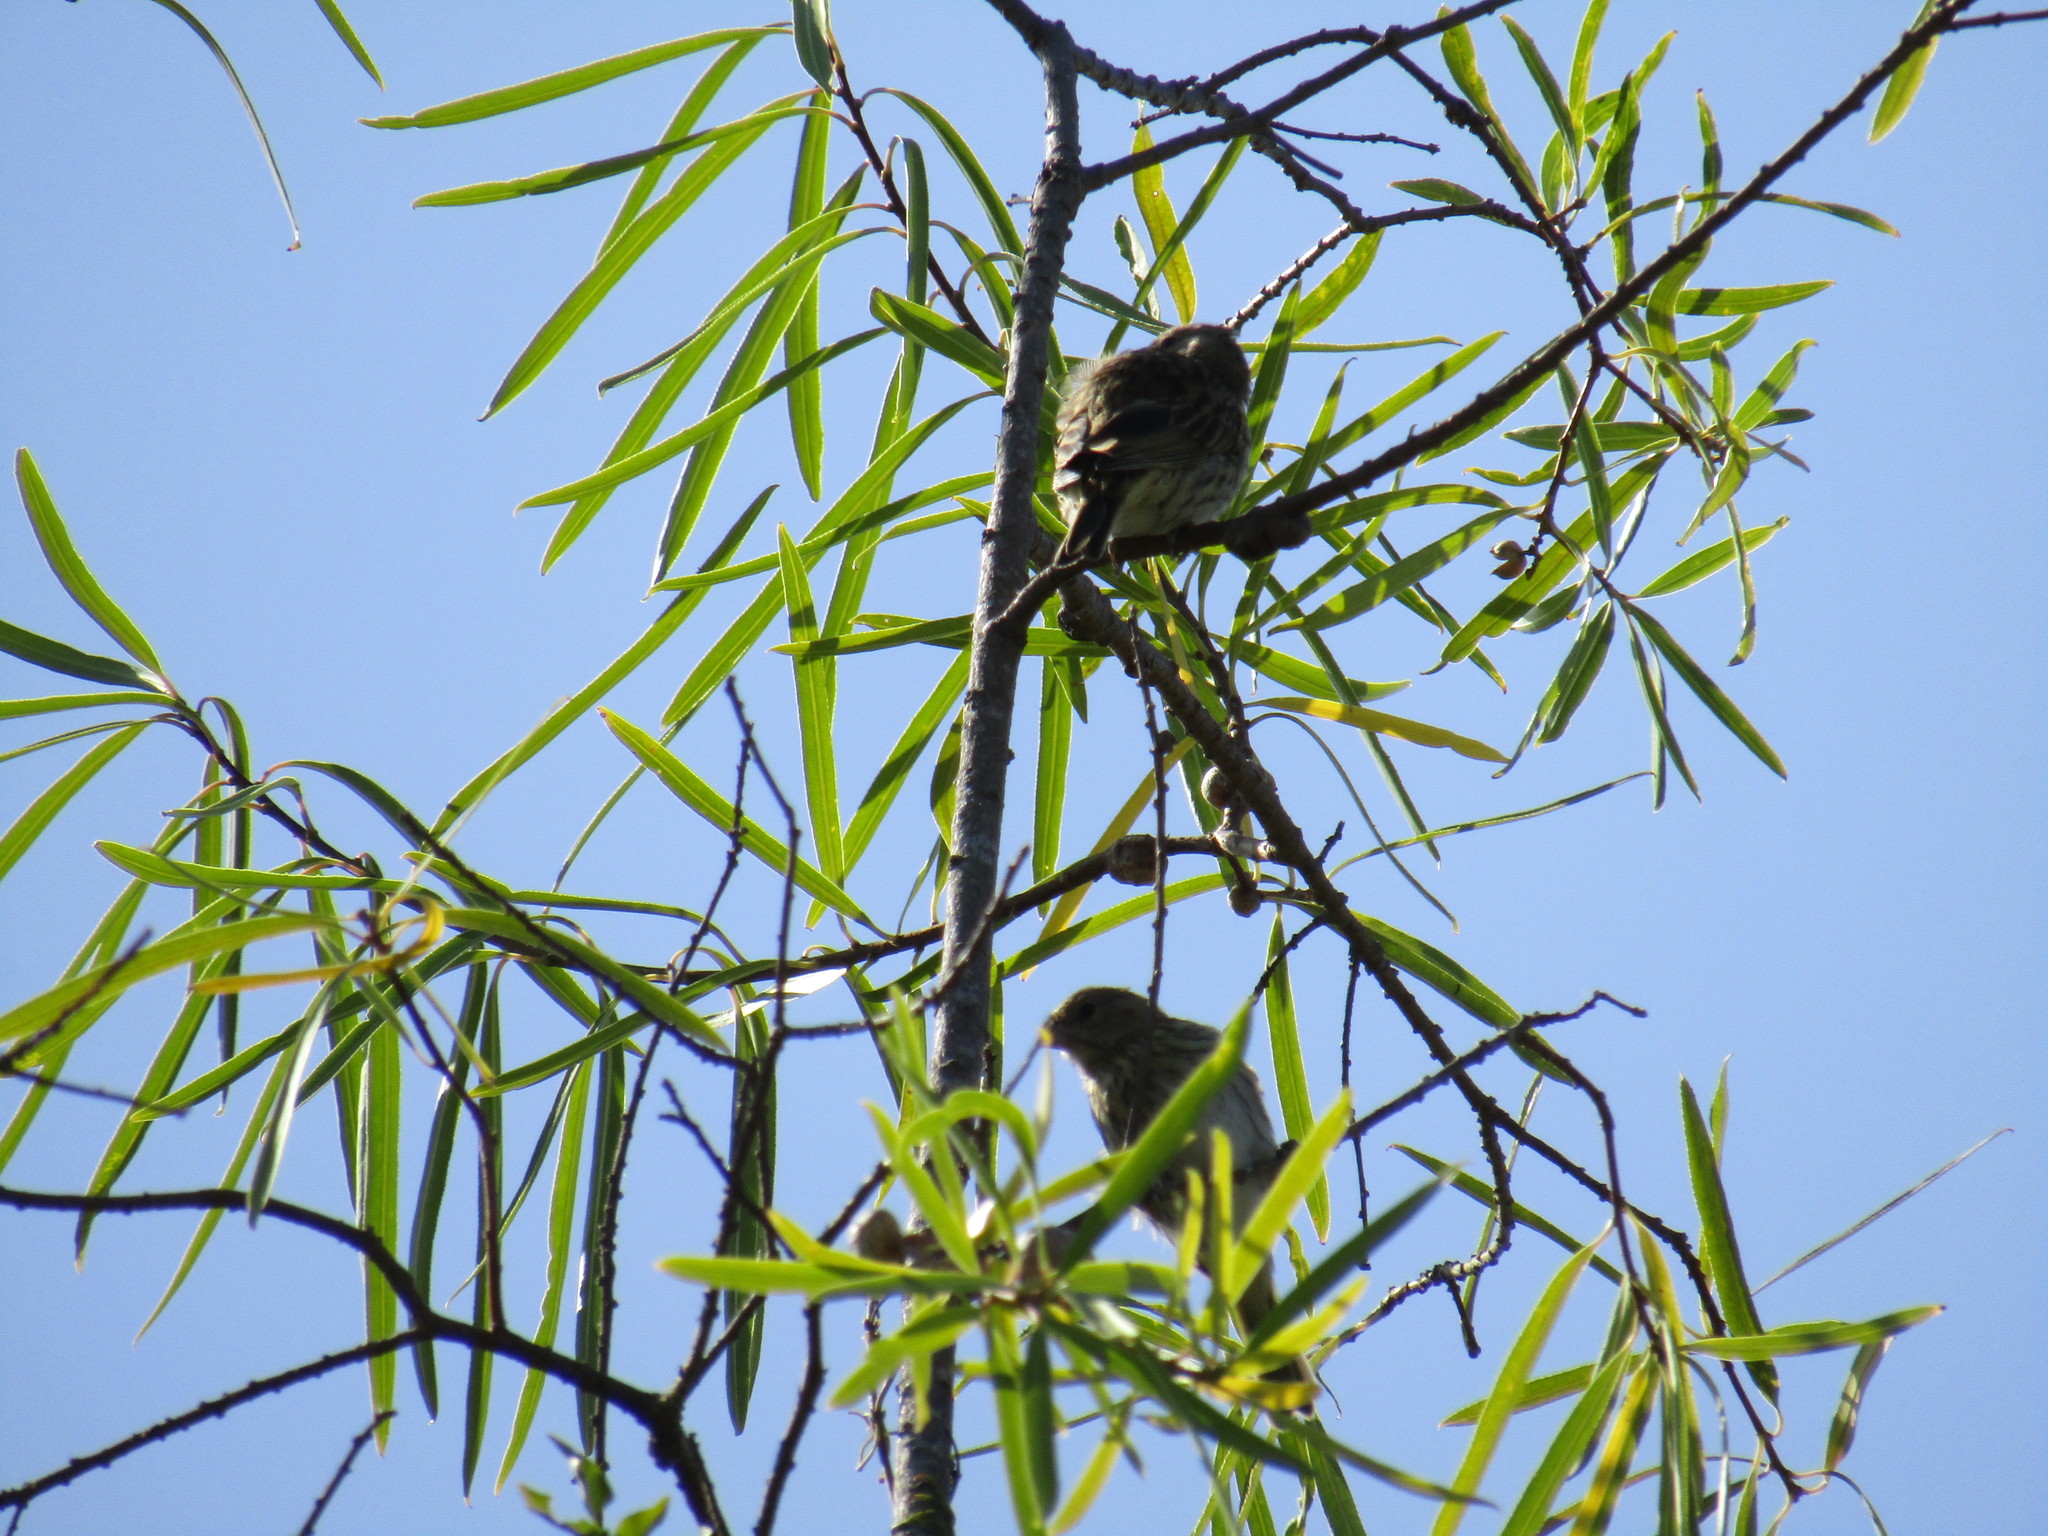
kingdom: Animalia
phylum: Chordata
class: Aves
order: Passeriformes
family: Thraupidae
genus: Sicalis
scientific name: Sicalis flaveola
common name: Saffron finch
